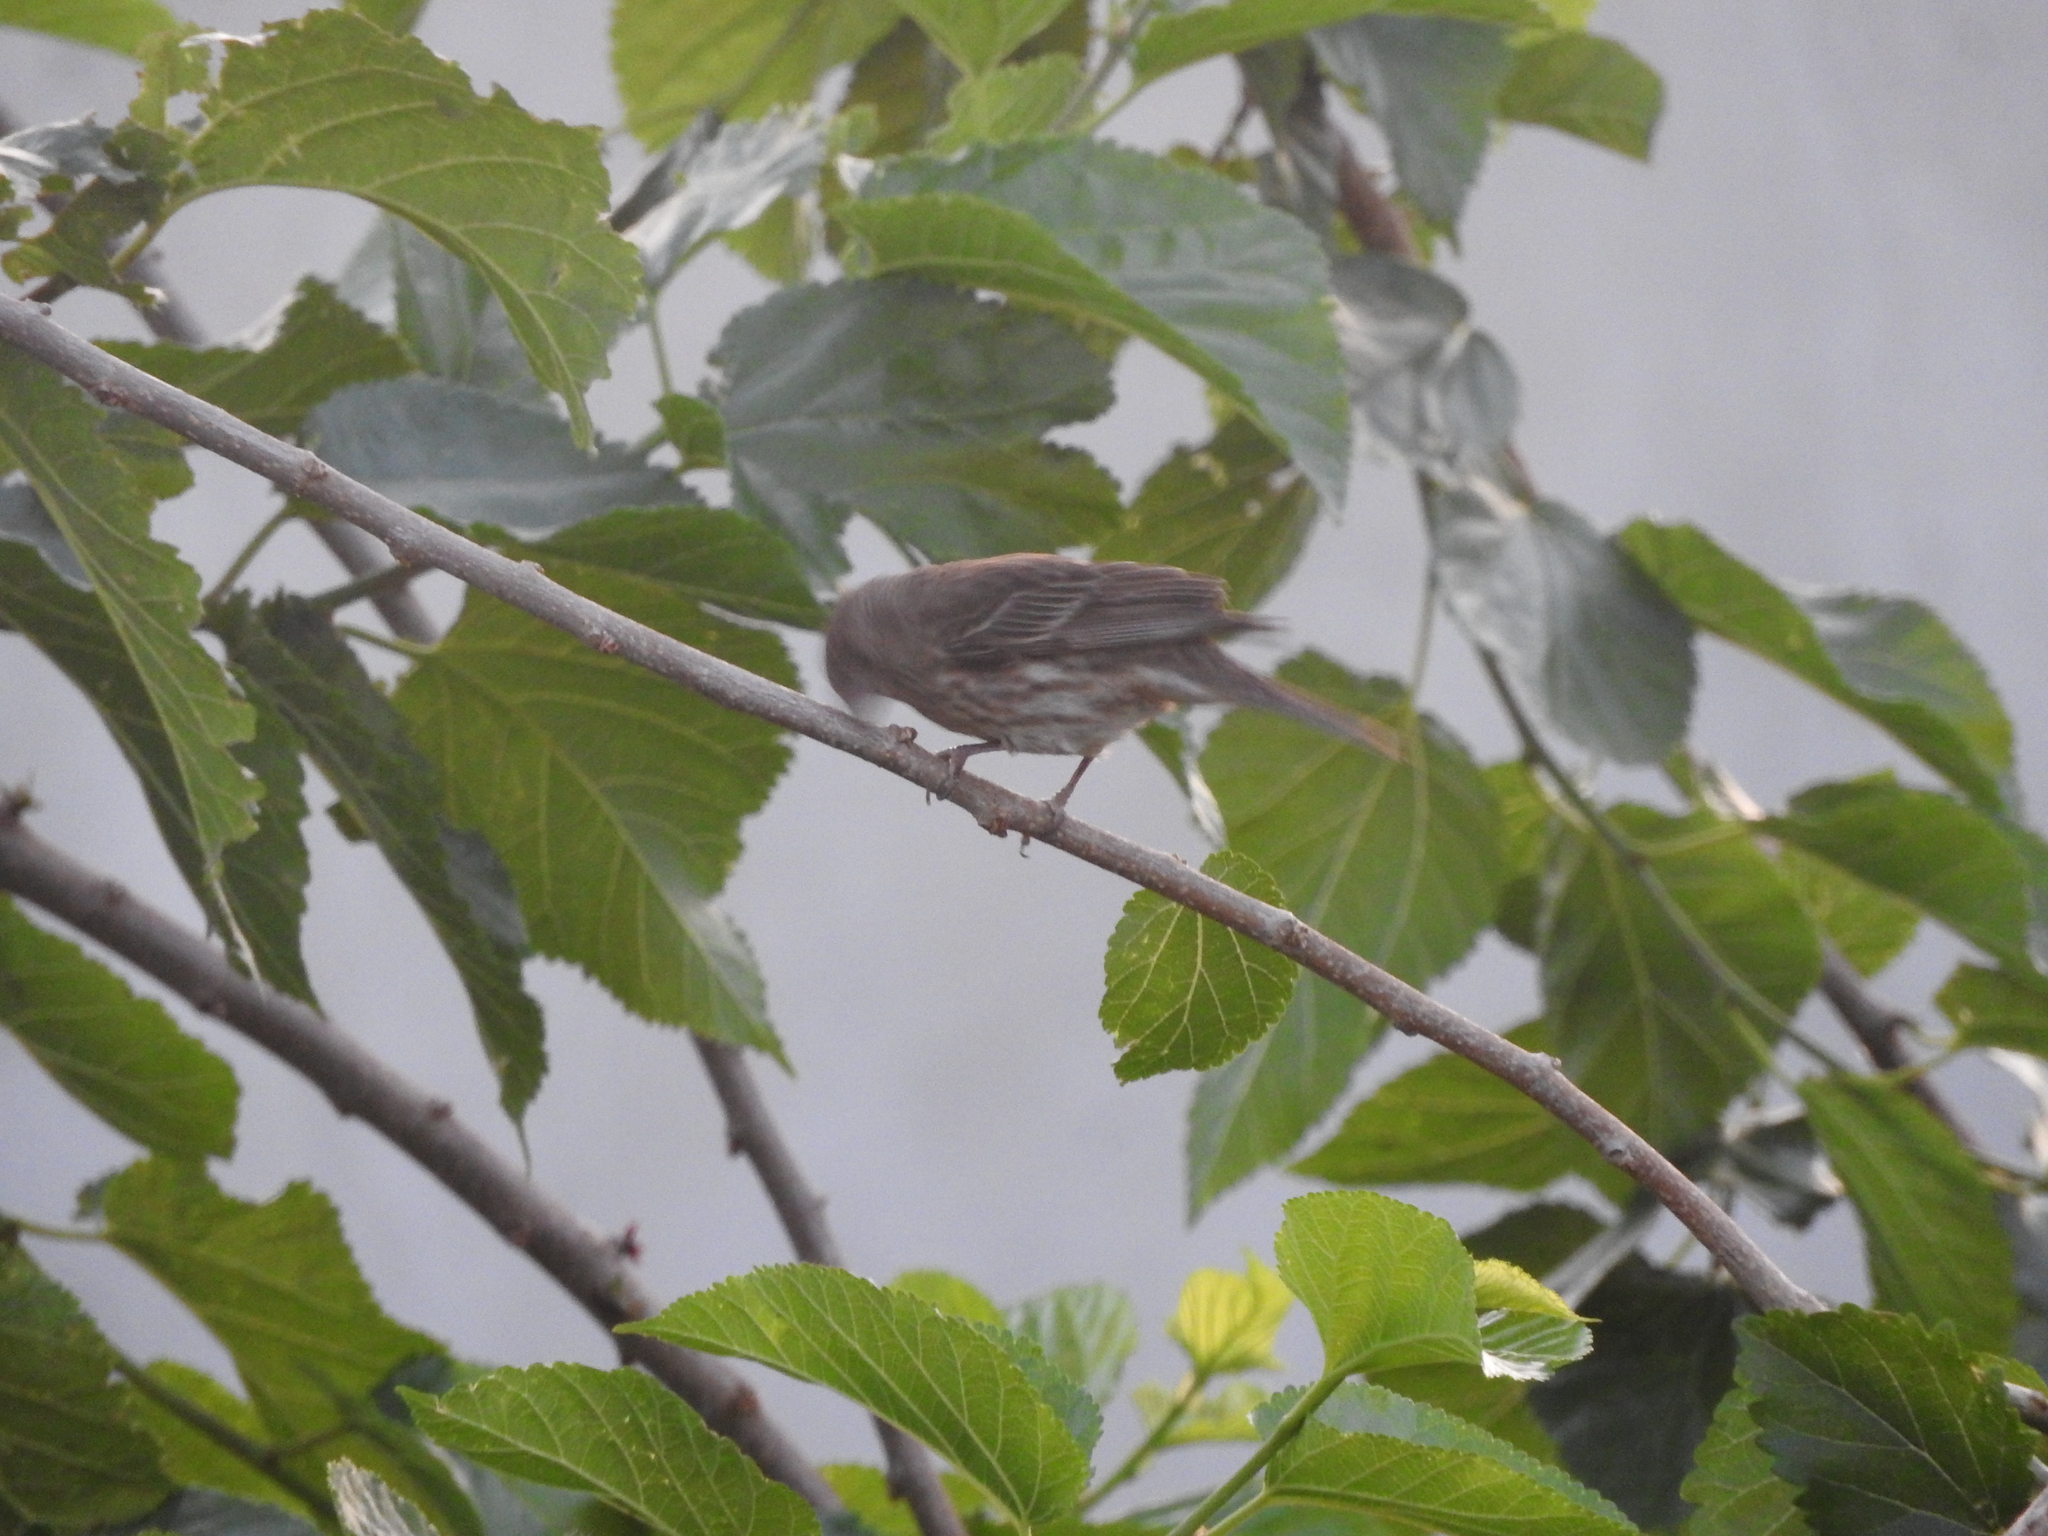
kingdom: Animalia
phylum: Chordata
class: Aves
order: Passeriformes
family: Fringillidae
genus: Haemorhous
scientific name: Haemorhous mexicanus
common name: House finch
